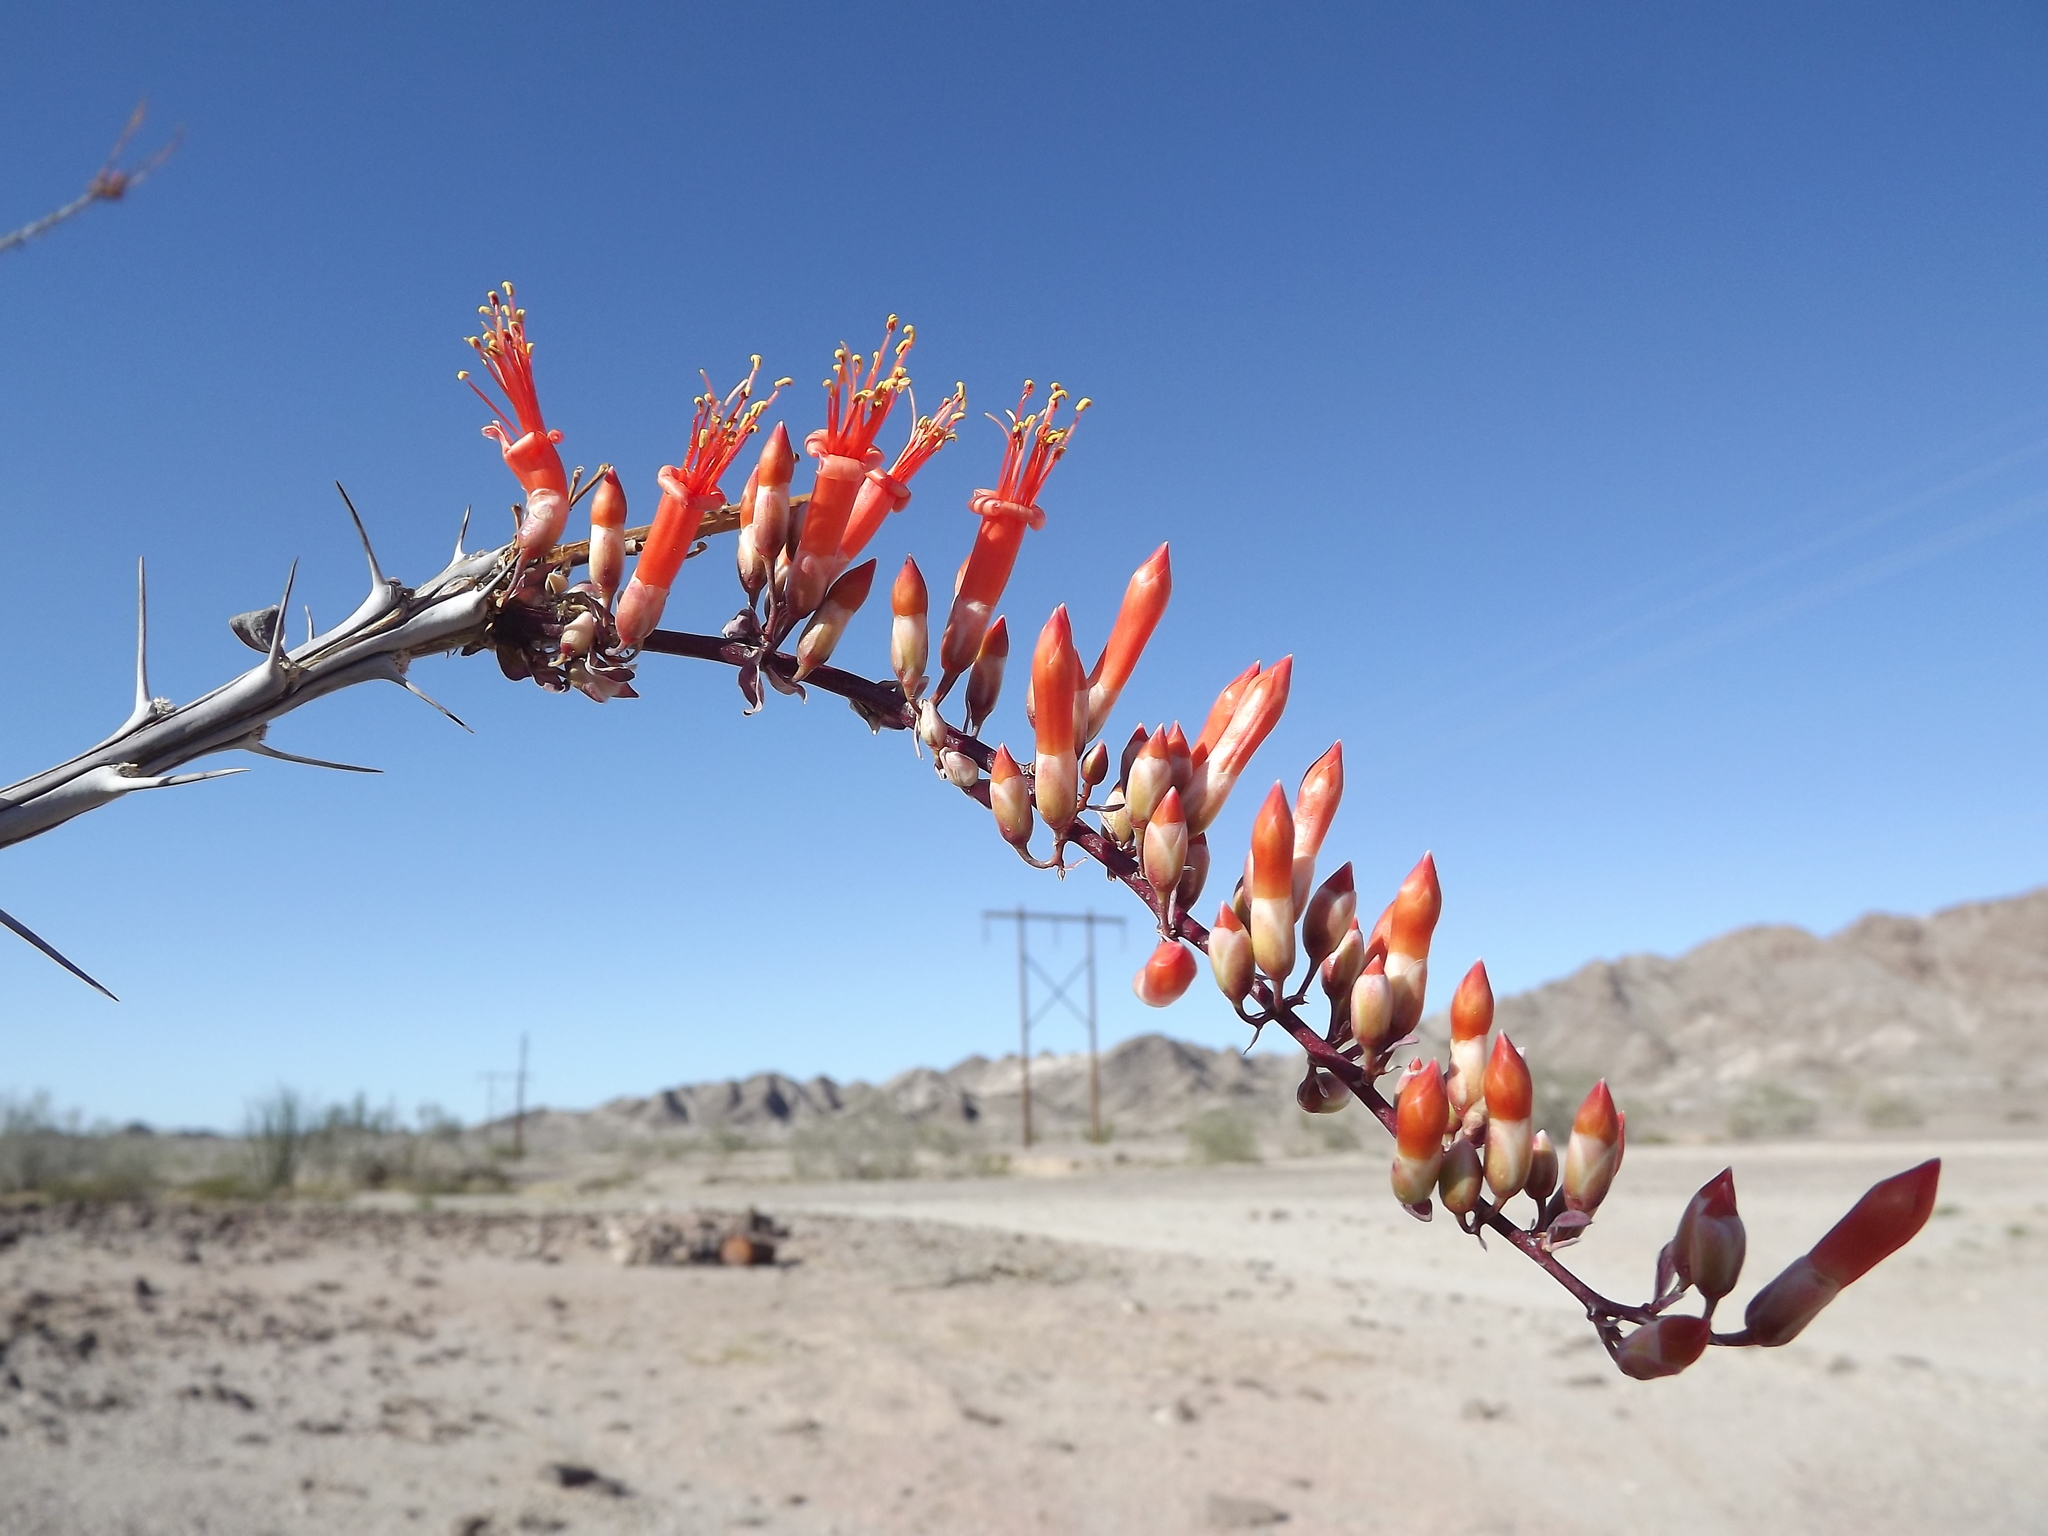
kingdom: Plantae
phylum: Tracheophyta
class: Magnoliopsida
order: Ericales
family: Fouquieriaceae
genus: Fouquieria
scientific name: Fouquieria splendens
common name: Vine-cactus
